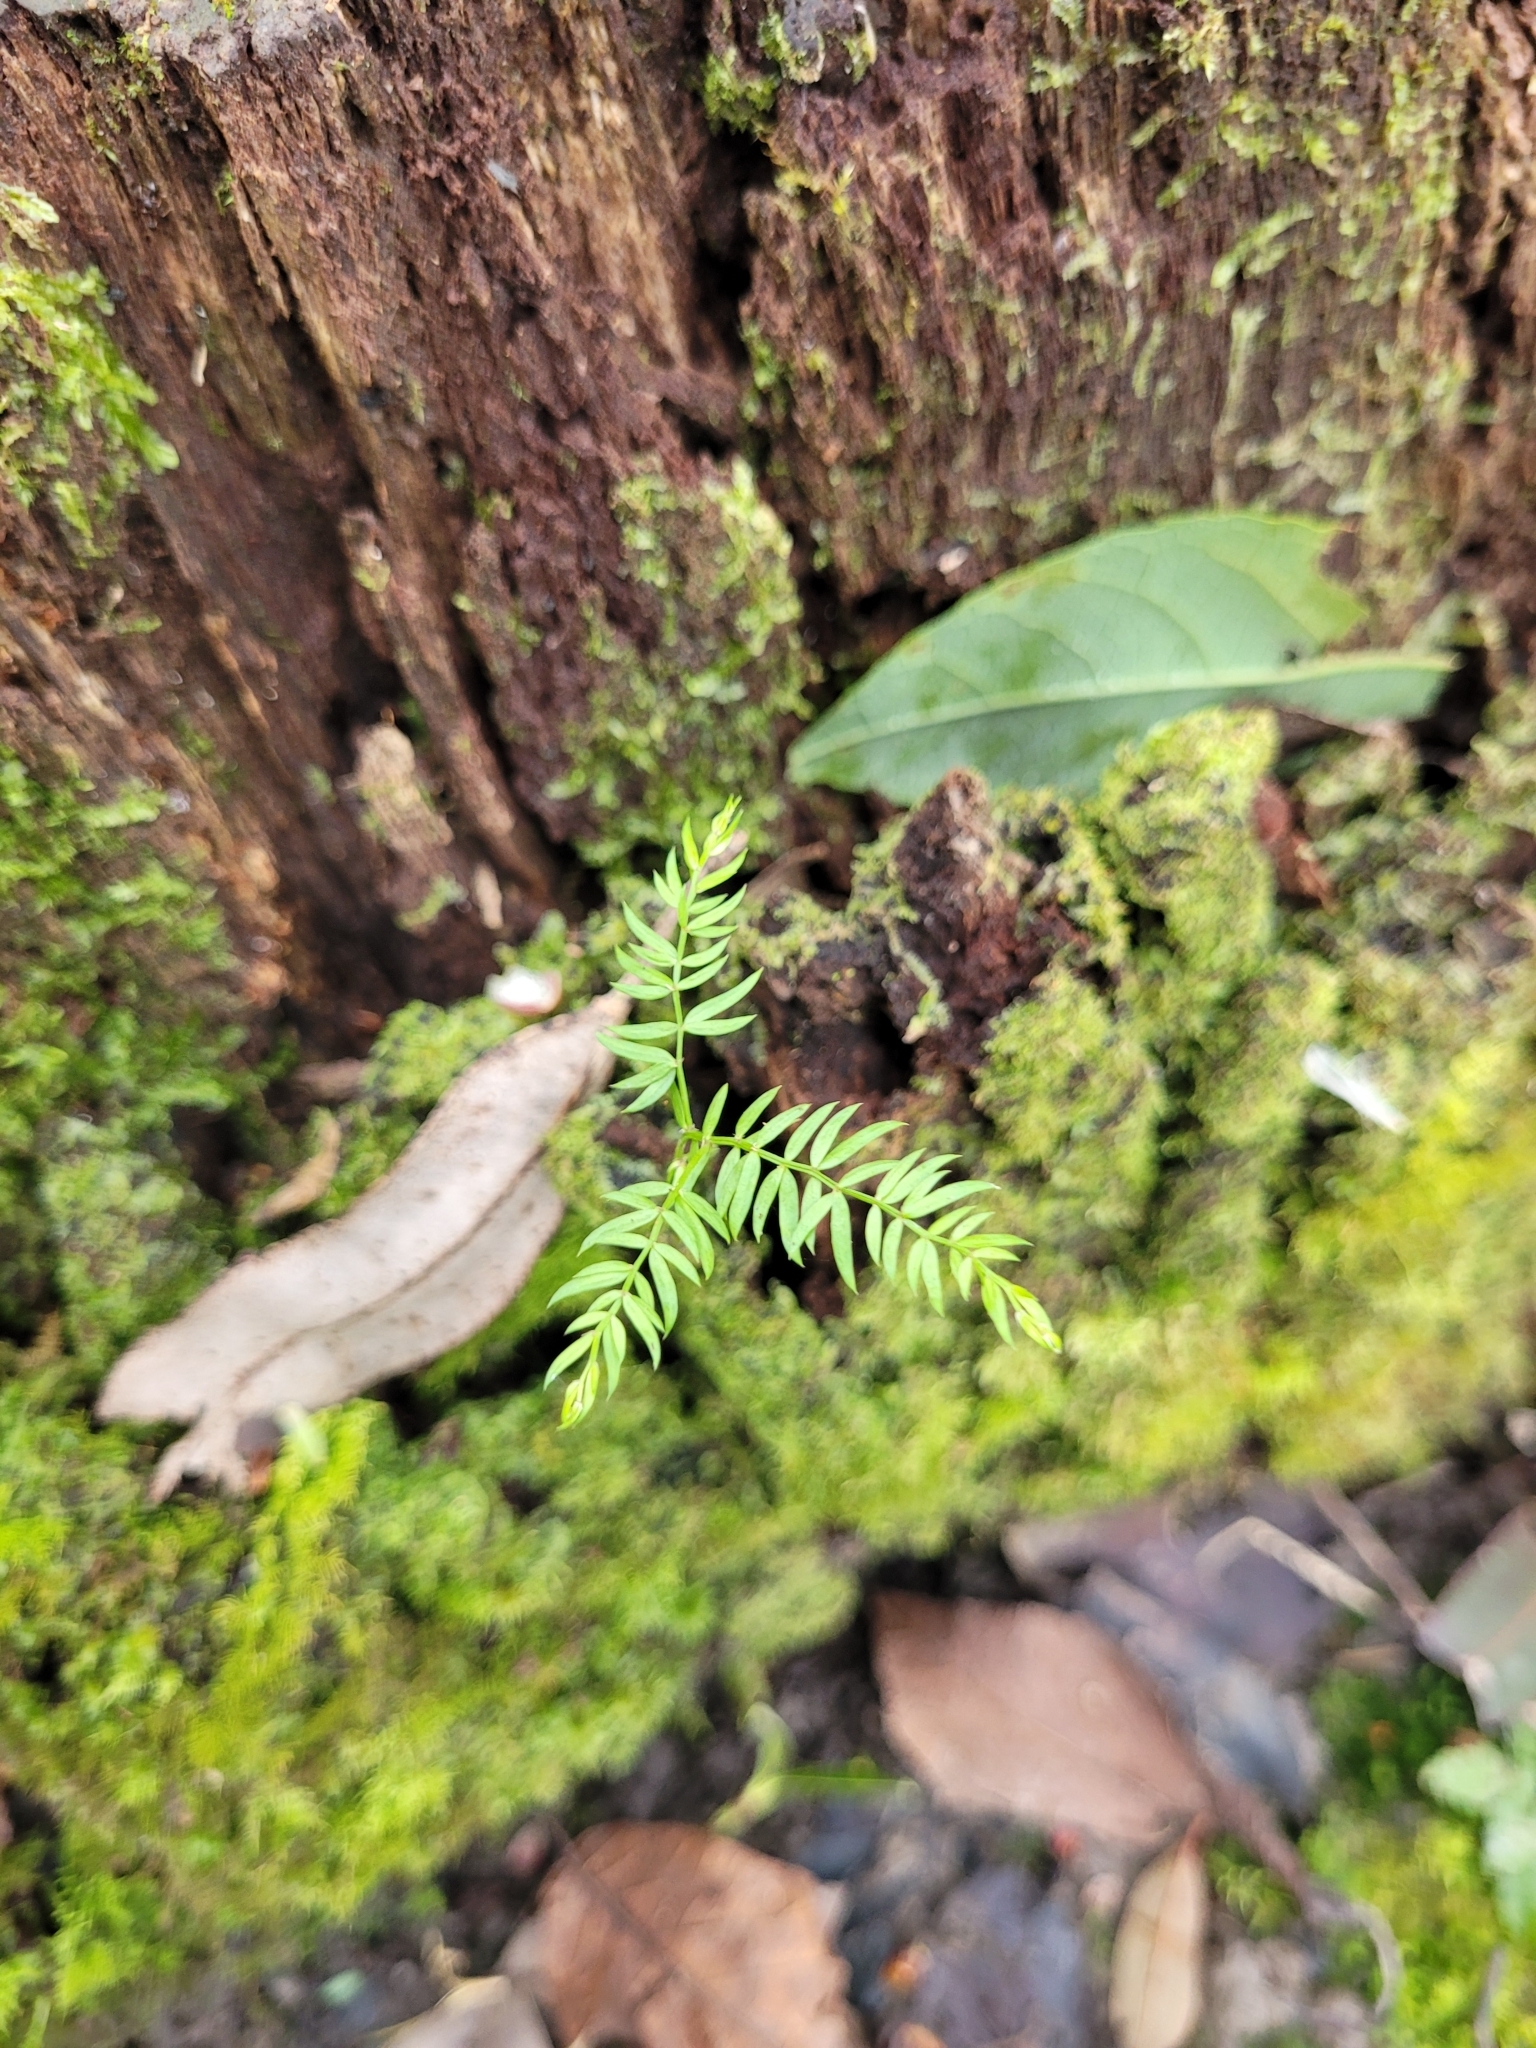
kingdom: Plantae
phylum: Tracheophyta
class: Liliopsida
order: Asparagales
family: Asparagaceae
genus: Asparagus
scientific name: Asparagus scandens
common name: Asparagus-fern
